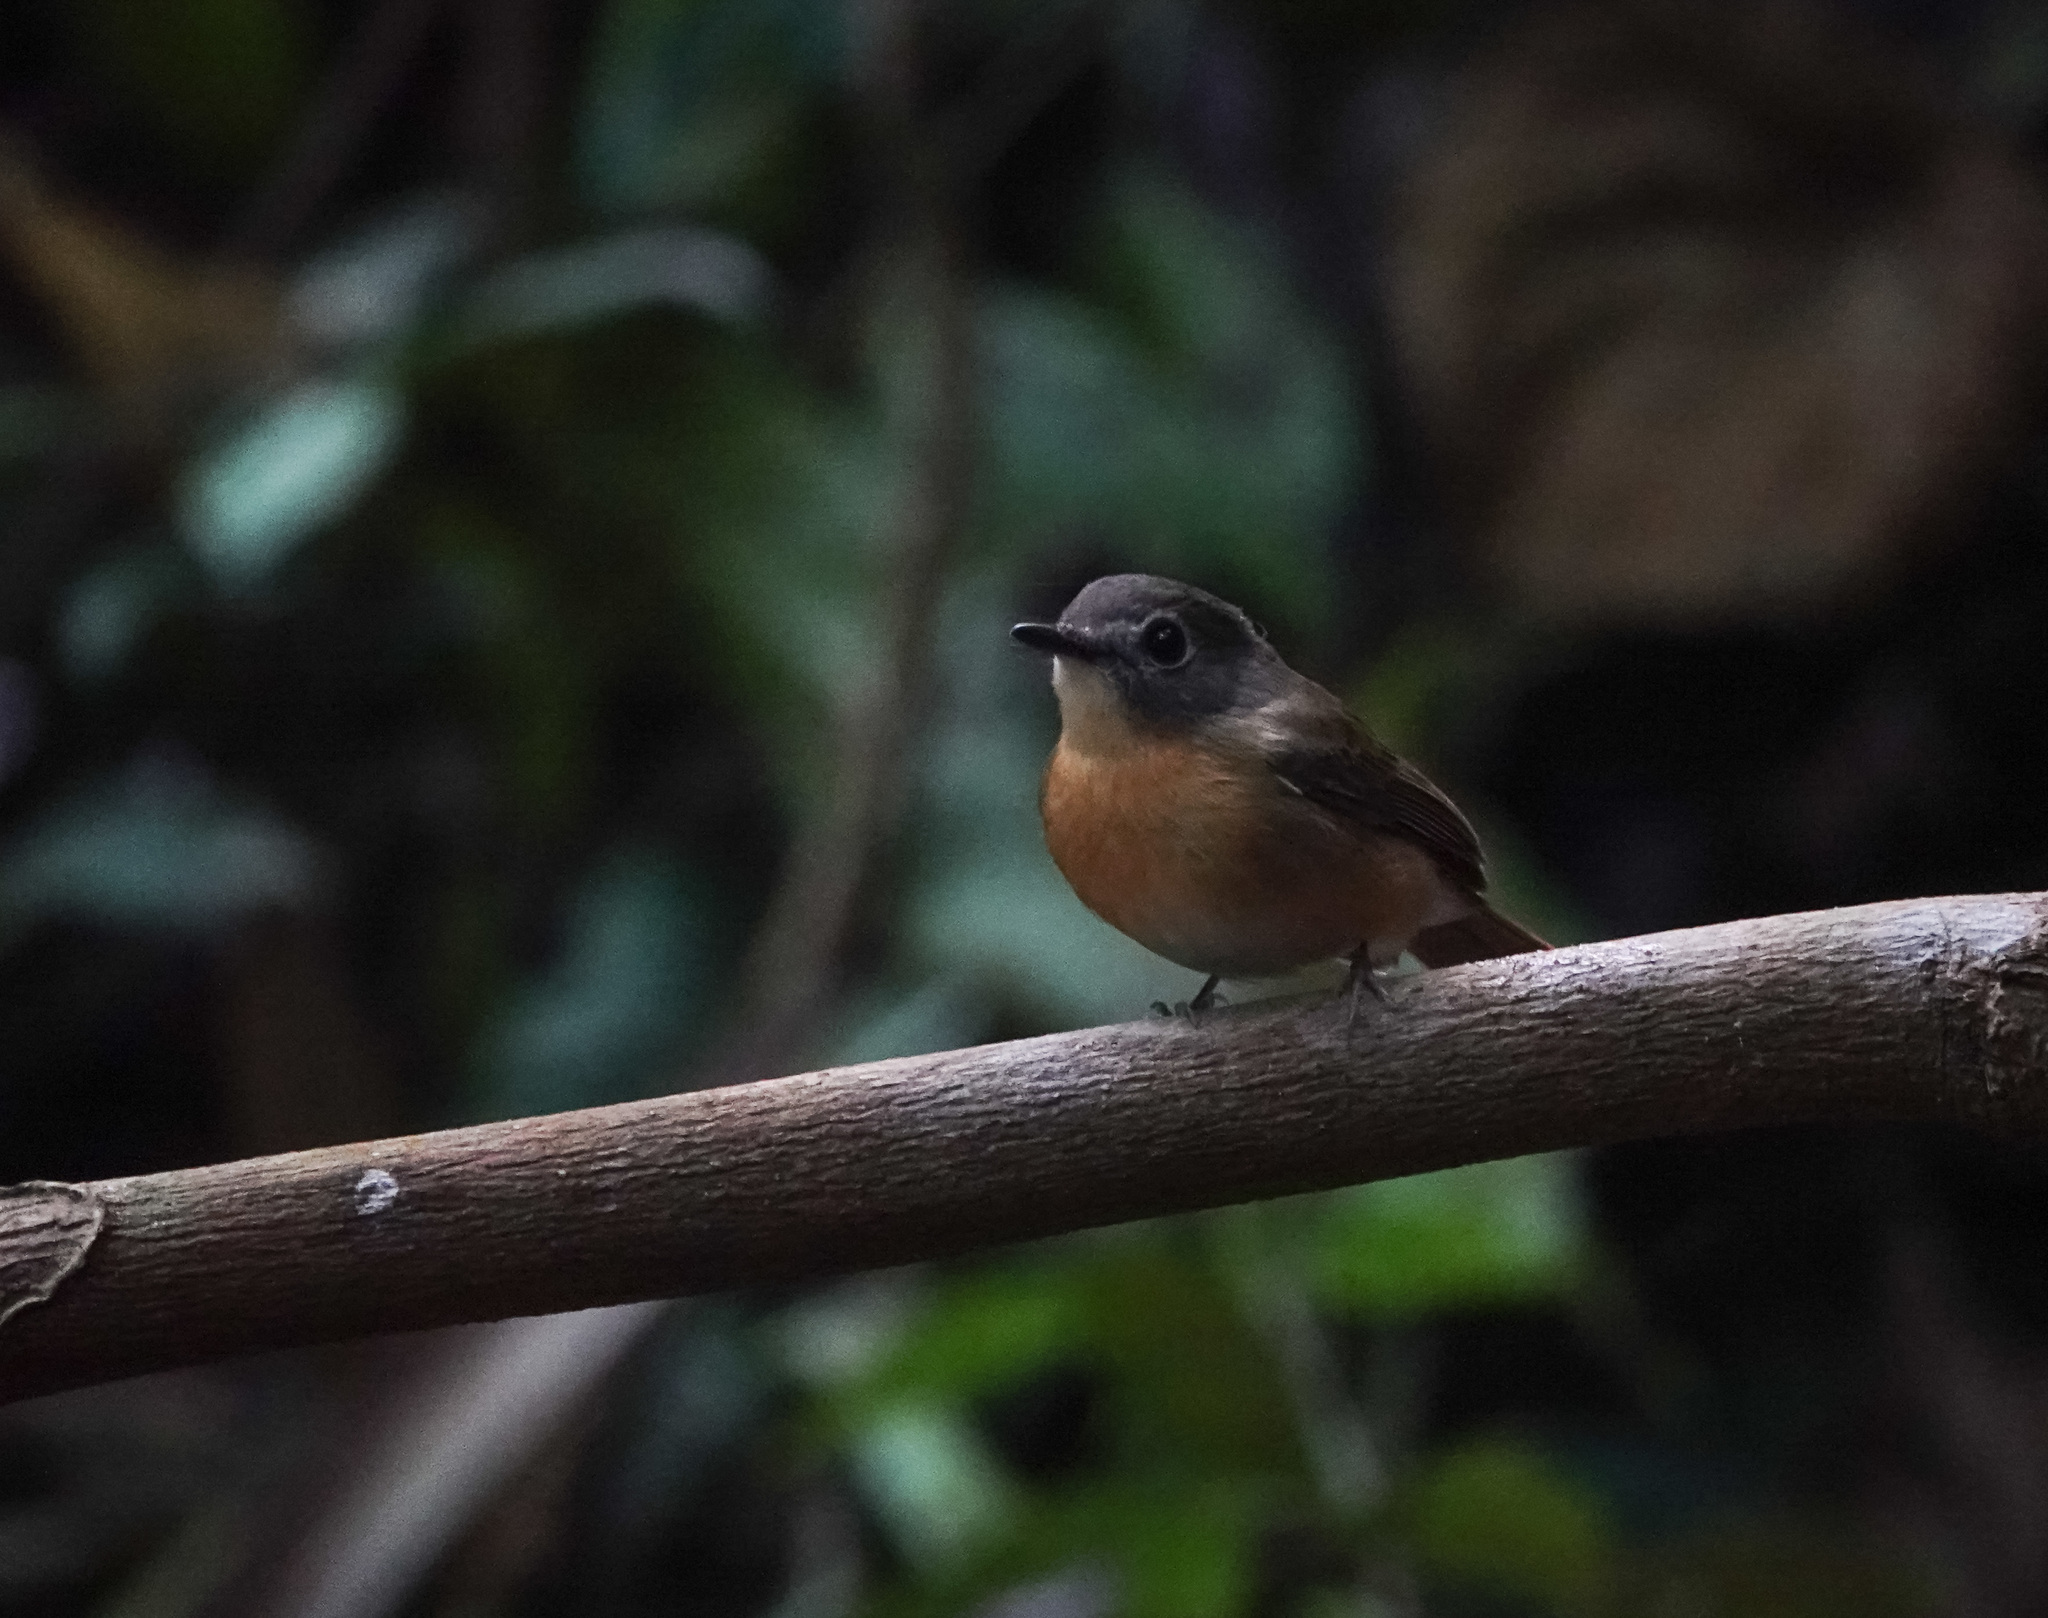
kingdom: Animalia
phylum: Chordata
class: Aves
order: Passeriformes
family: Muscicapidae
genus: Cyornis
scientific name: Cyornis poliogenys
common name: Pale-chinned blue flycatcher
